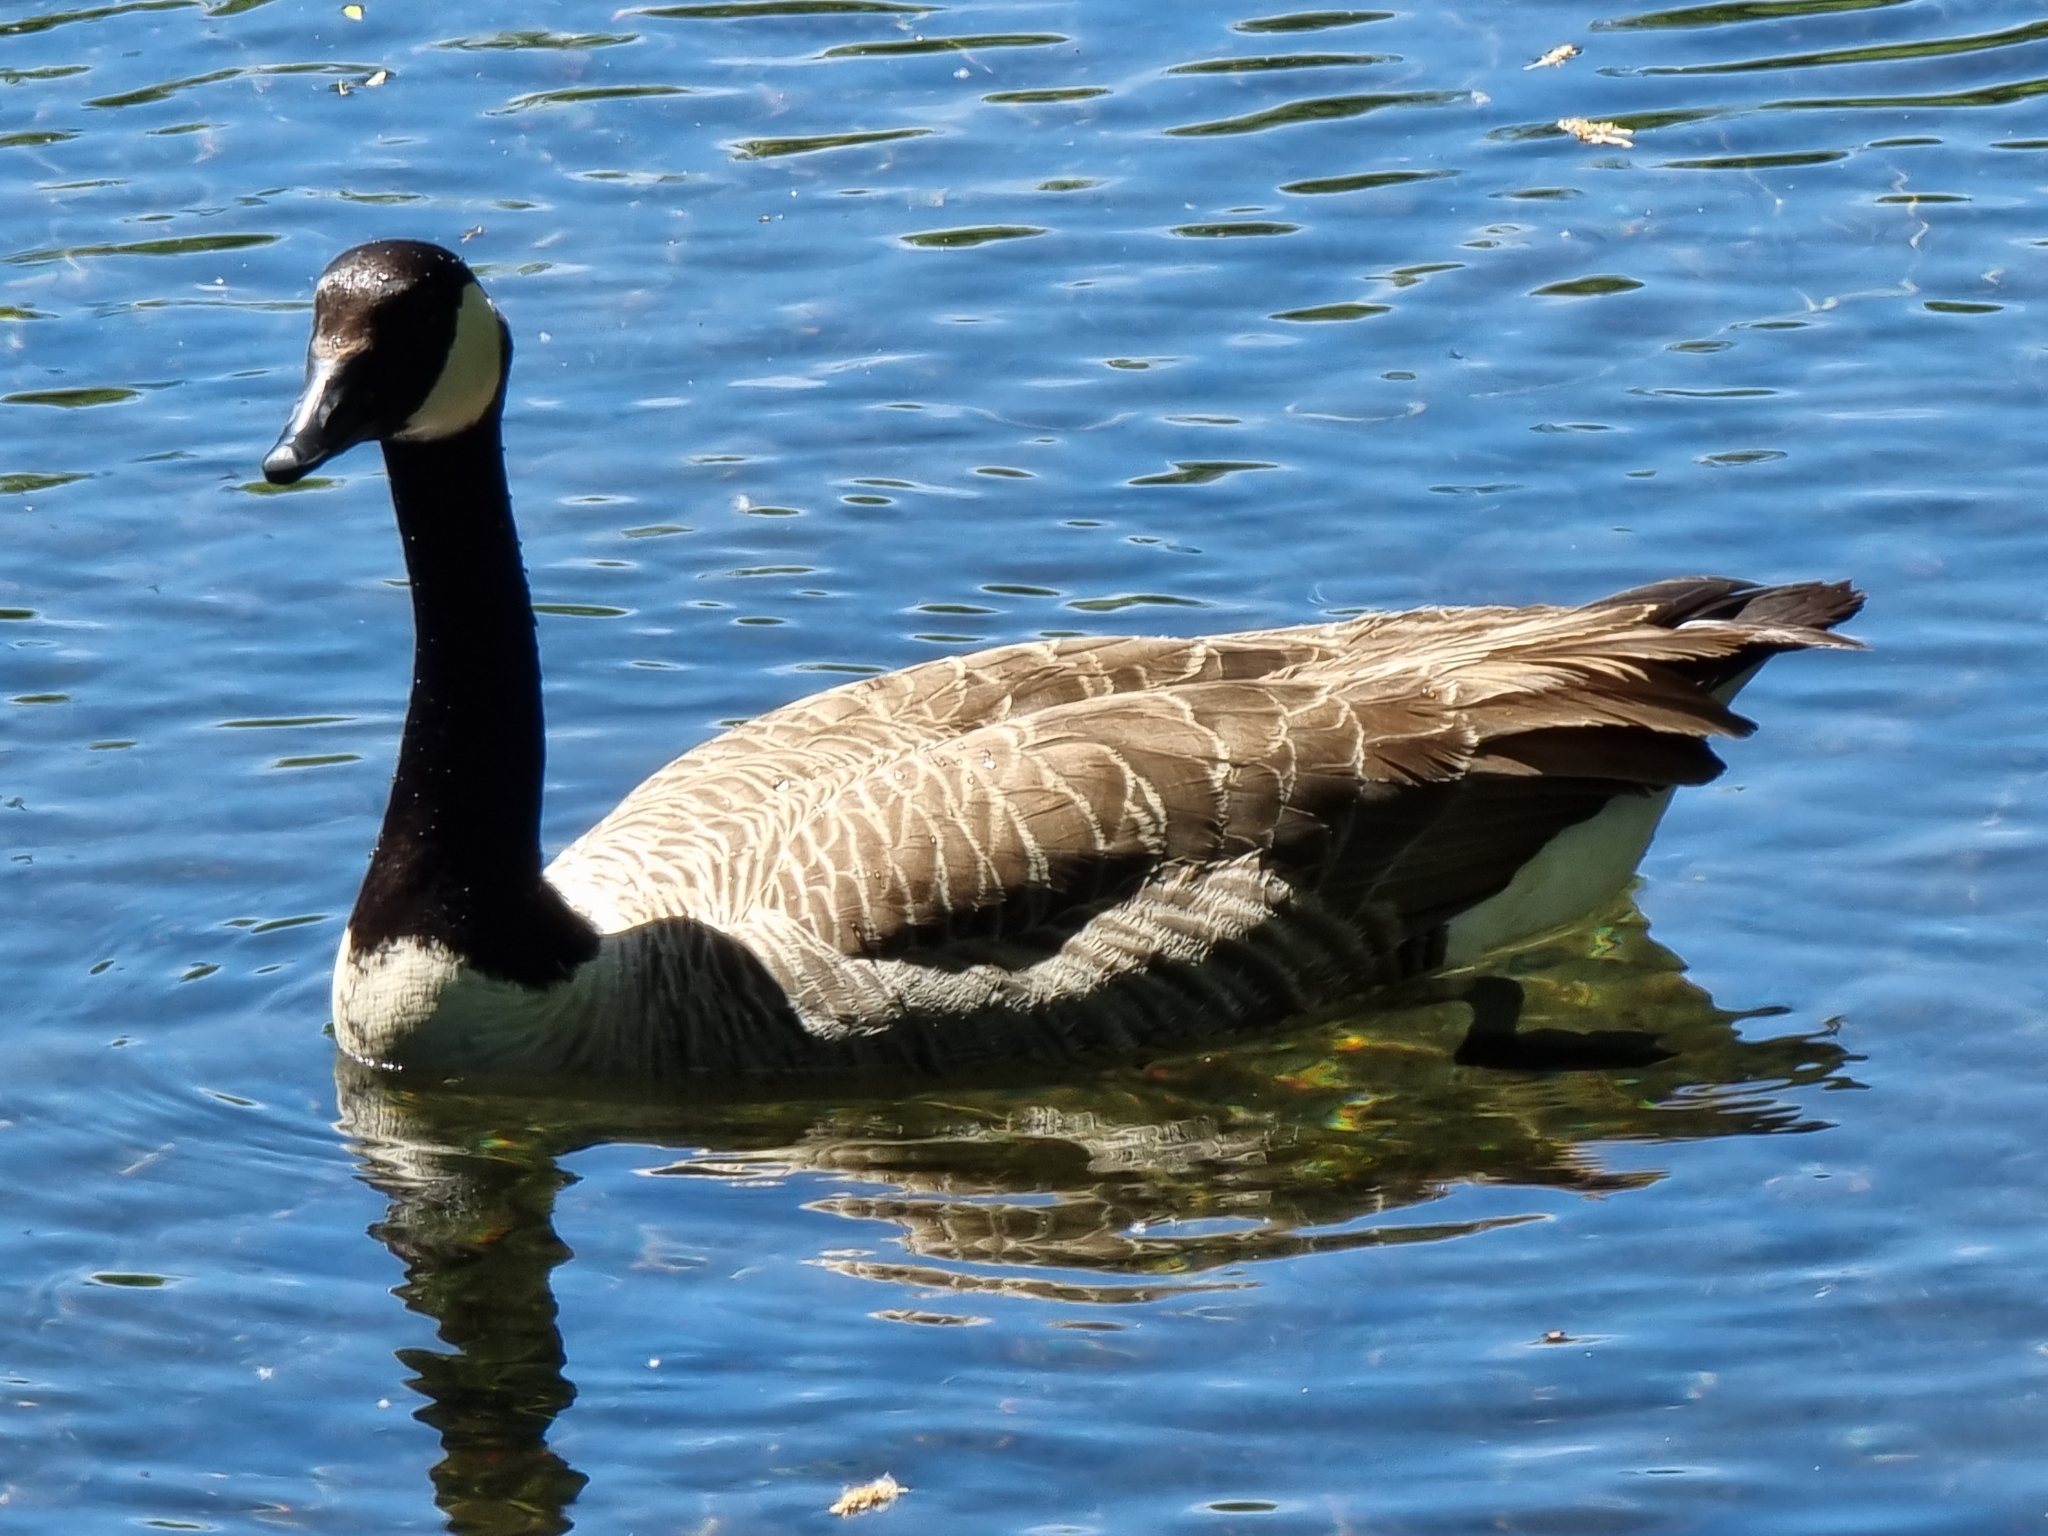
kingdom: Animalia
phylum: Chordata
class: Aves
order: Anseriformes
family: Anatidae
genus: Branta
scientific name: Branta canadensis
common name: Canada goose
